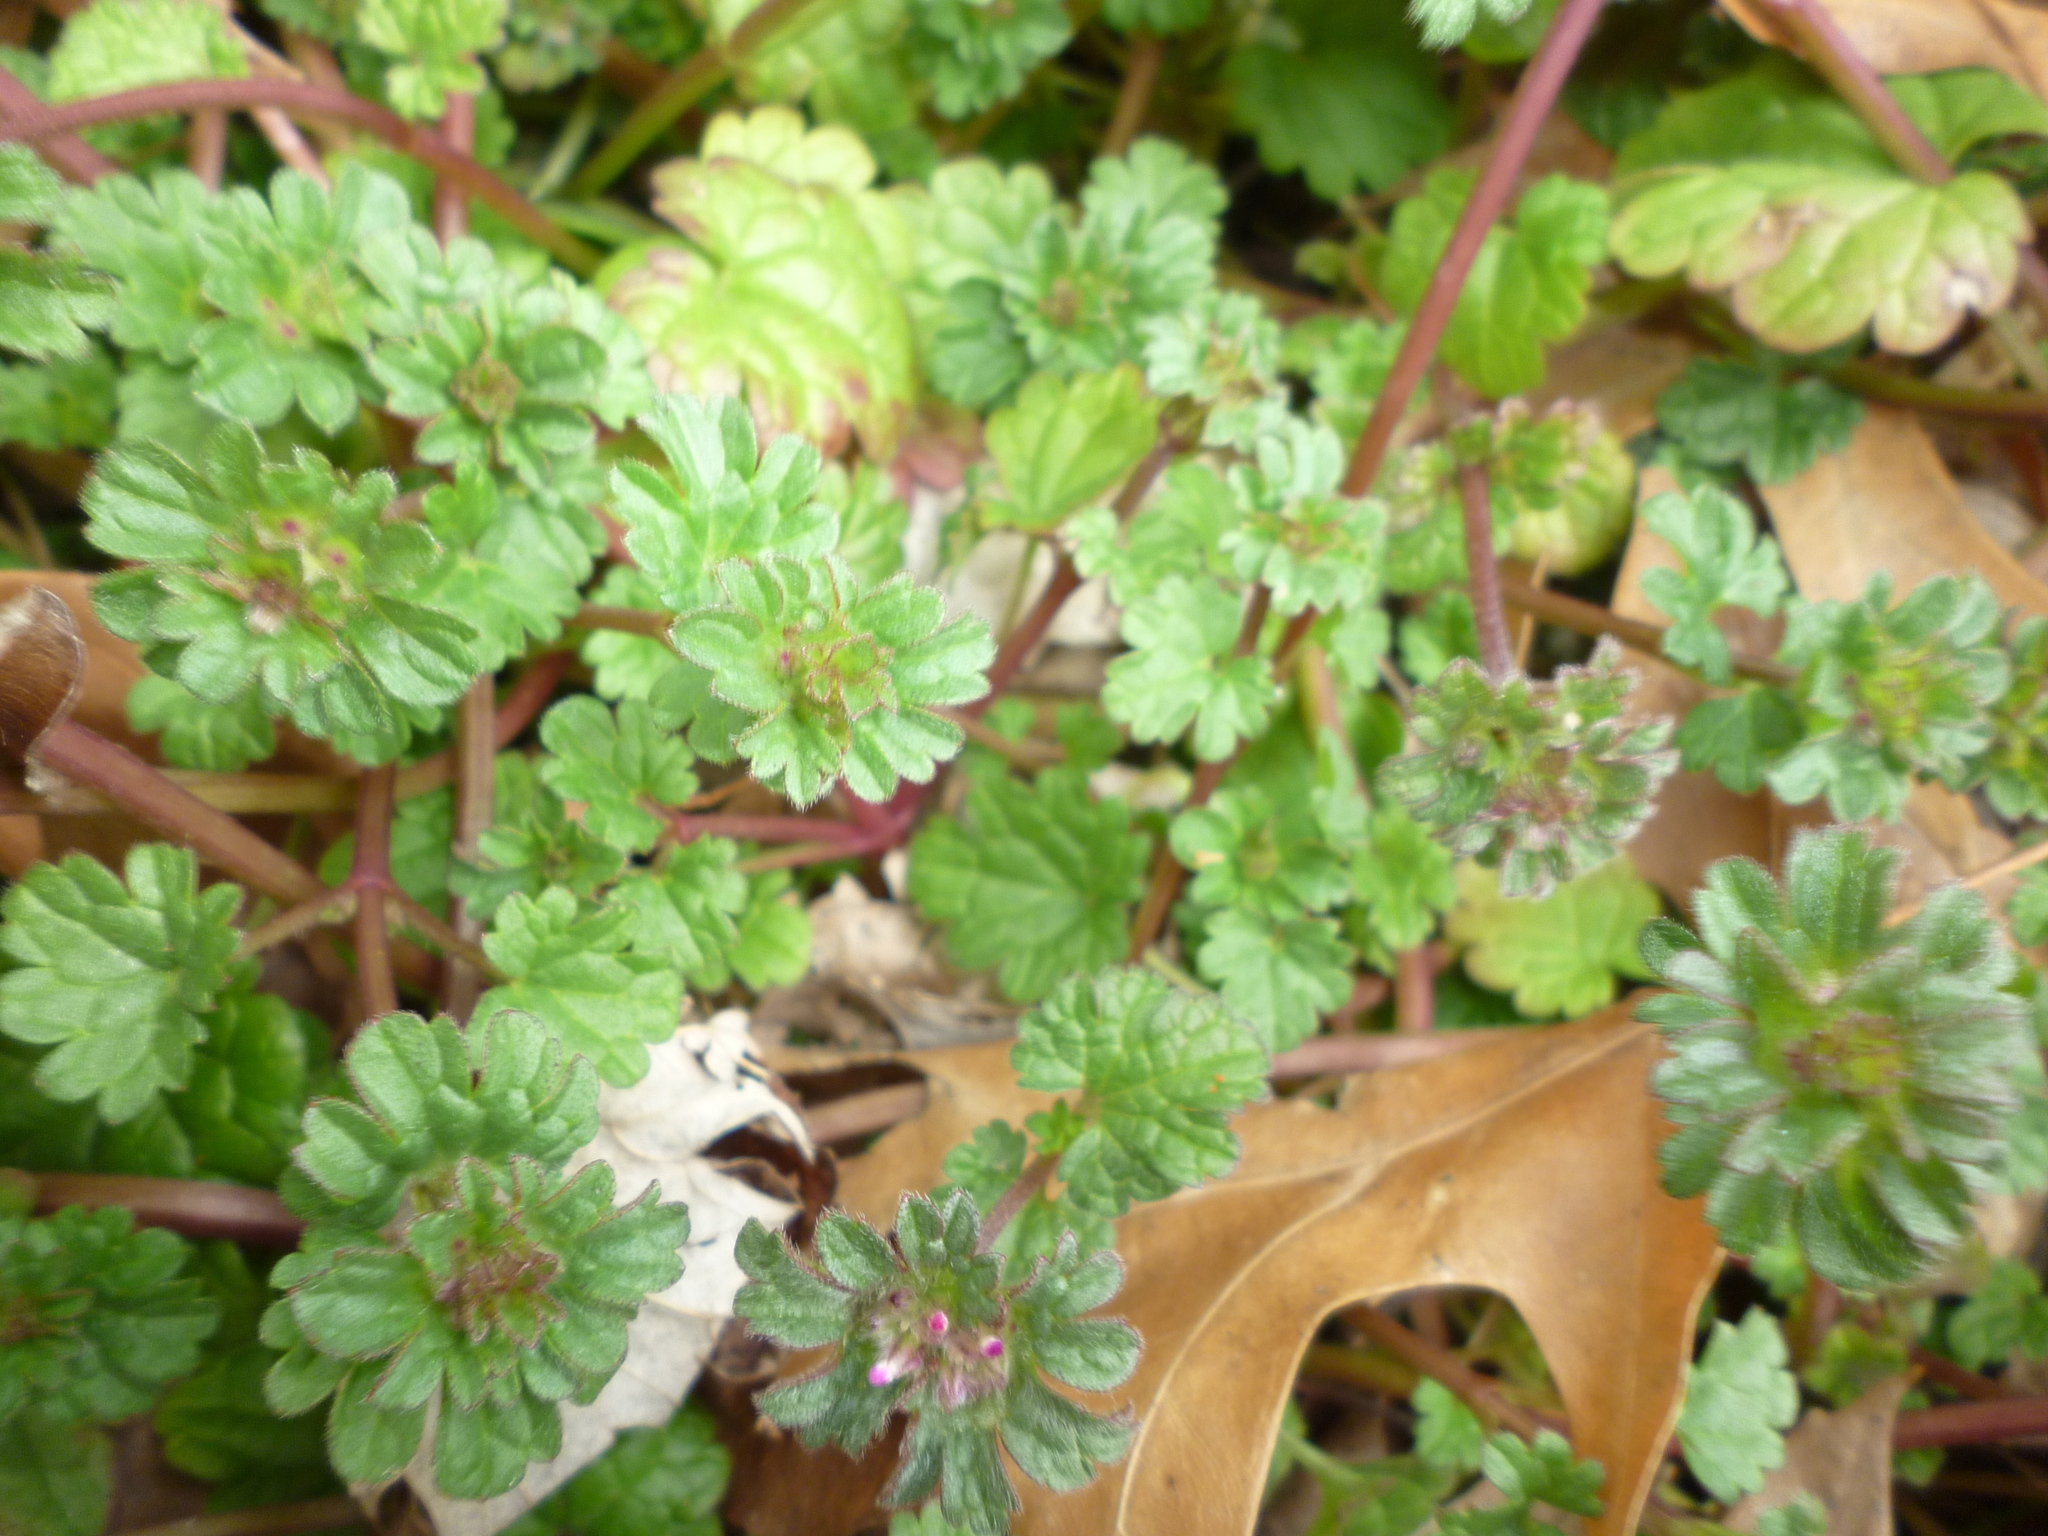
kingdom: Plantae
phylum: Tracheophyta
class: Magnoliopsida
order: Lamiales
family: Lamiaceae
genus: Lamium
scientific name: Lamium amplexicaule
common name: Henbit dead-nettle
